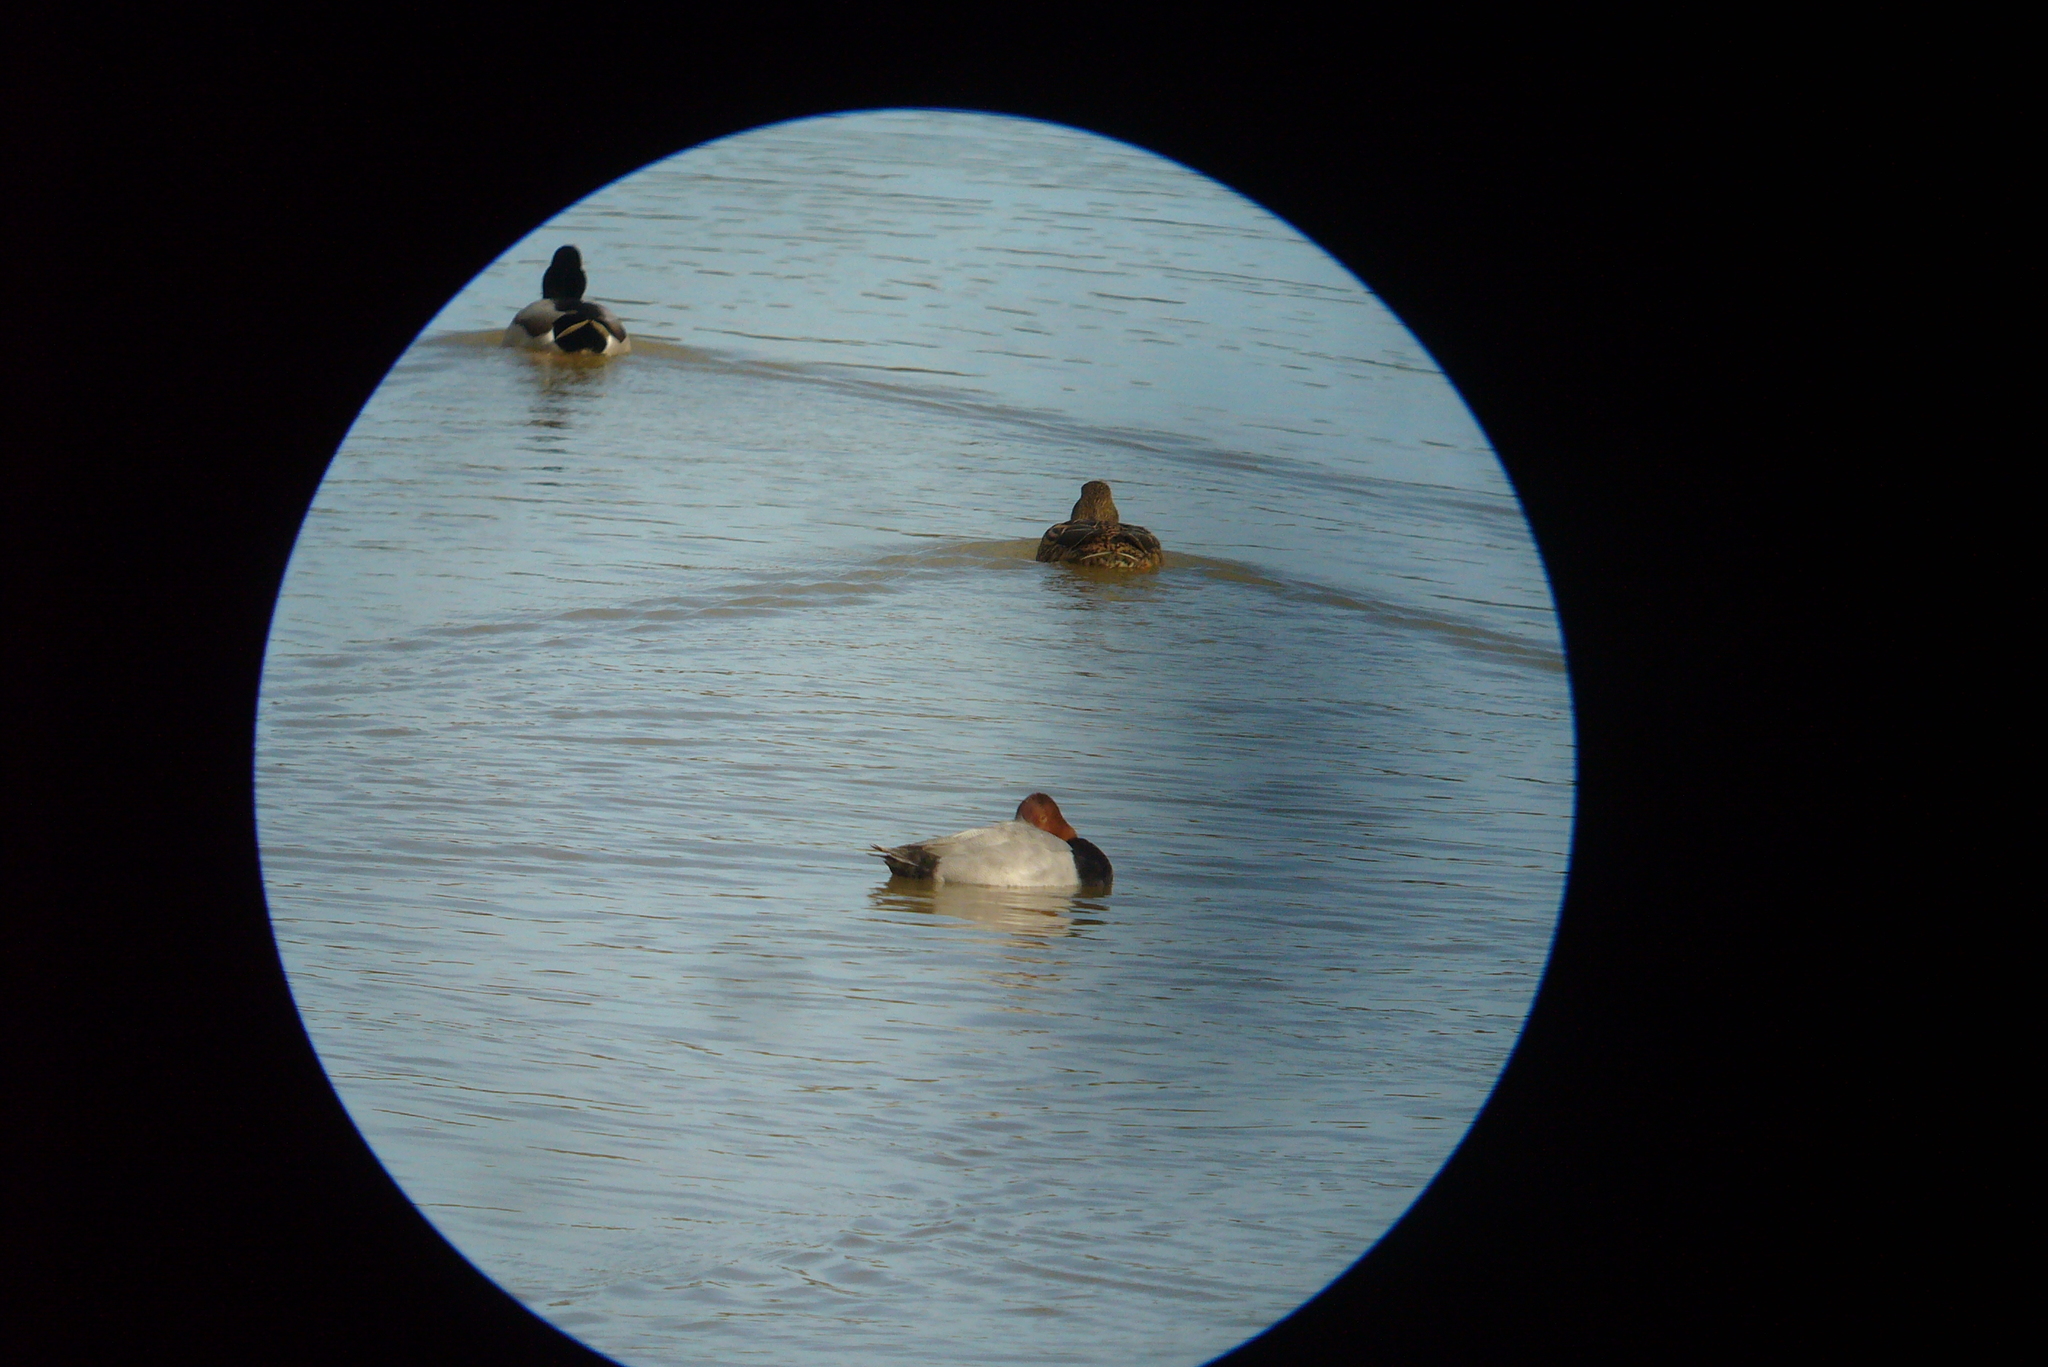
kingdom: Animalia
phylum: Chordata
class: Aves
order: Anseriformes
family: Anatidae
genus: Aythya
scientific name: Aythya ferina
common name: Common pochard
